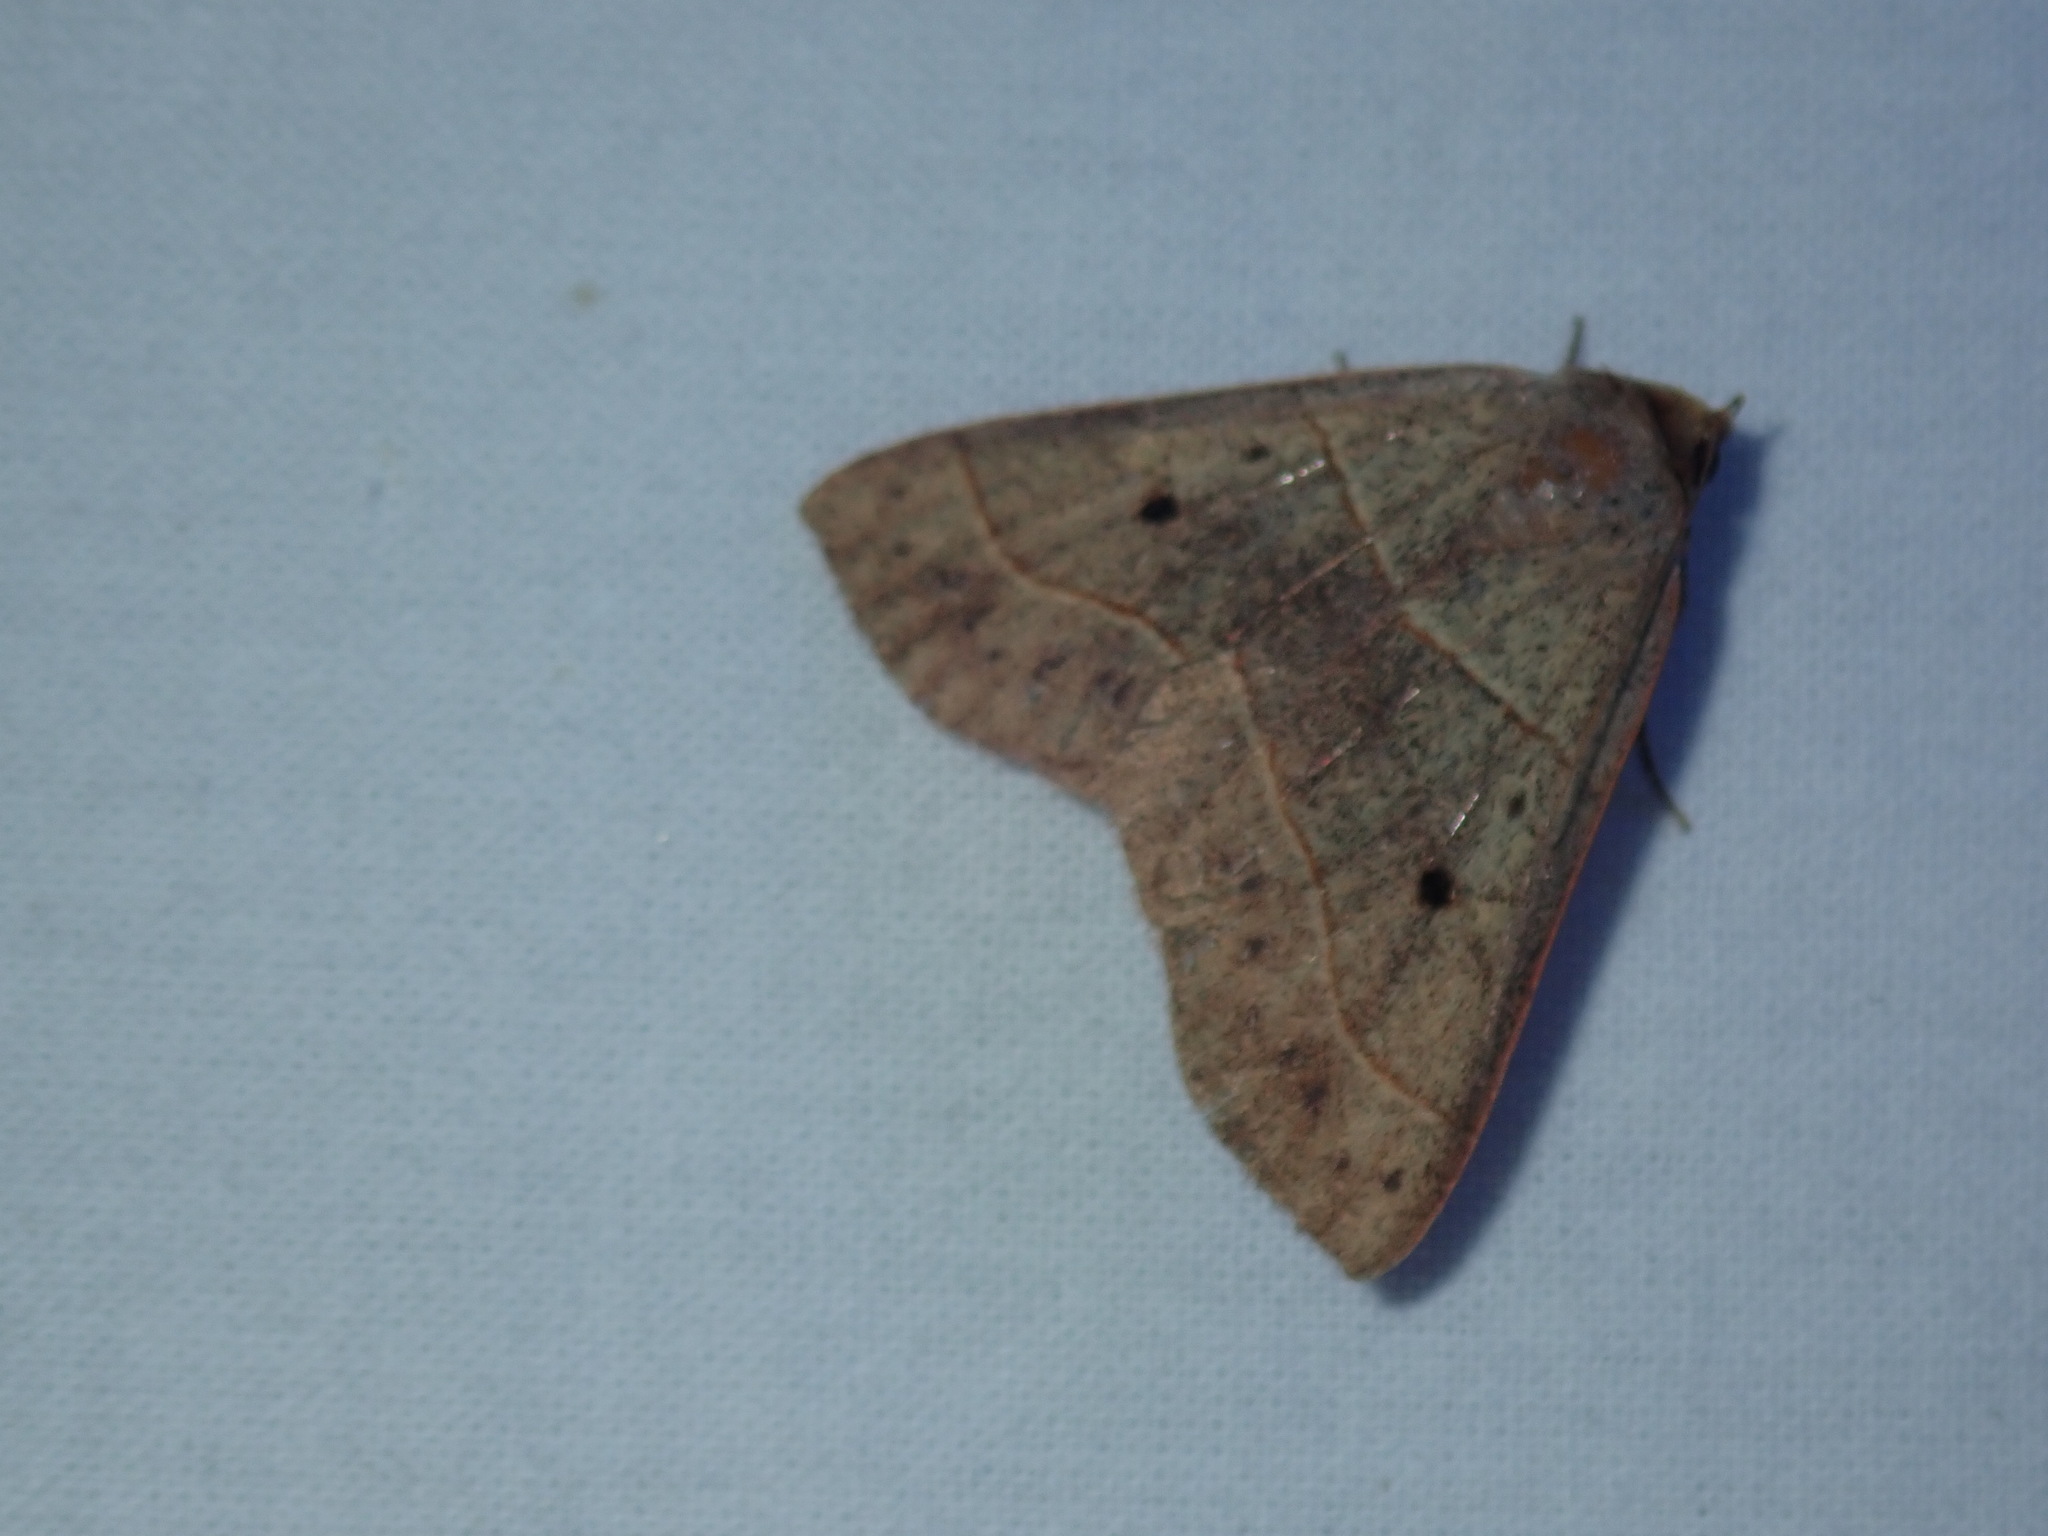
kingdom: Animalia
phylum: Arthropoda
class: Insecta
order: Lepidoptera
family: Erebidae
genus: Panopoda
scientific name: Panopoda rufimargo
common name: Red-lined panopoda moth
